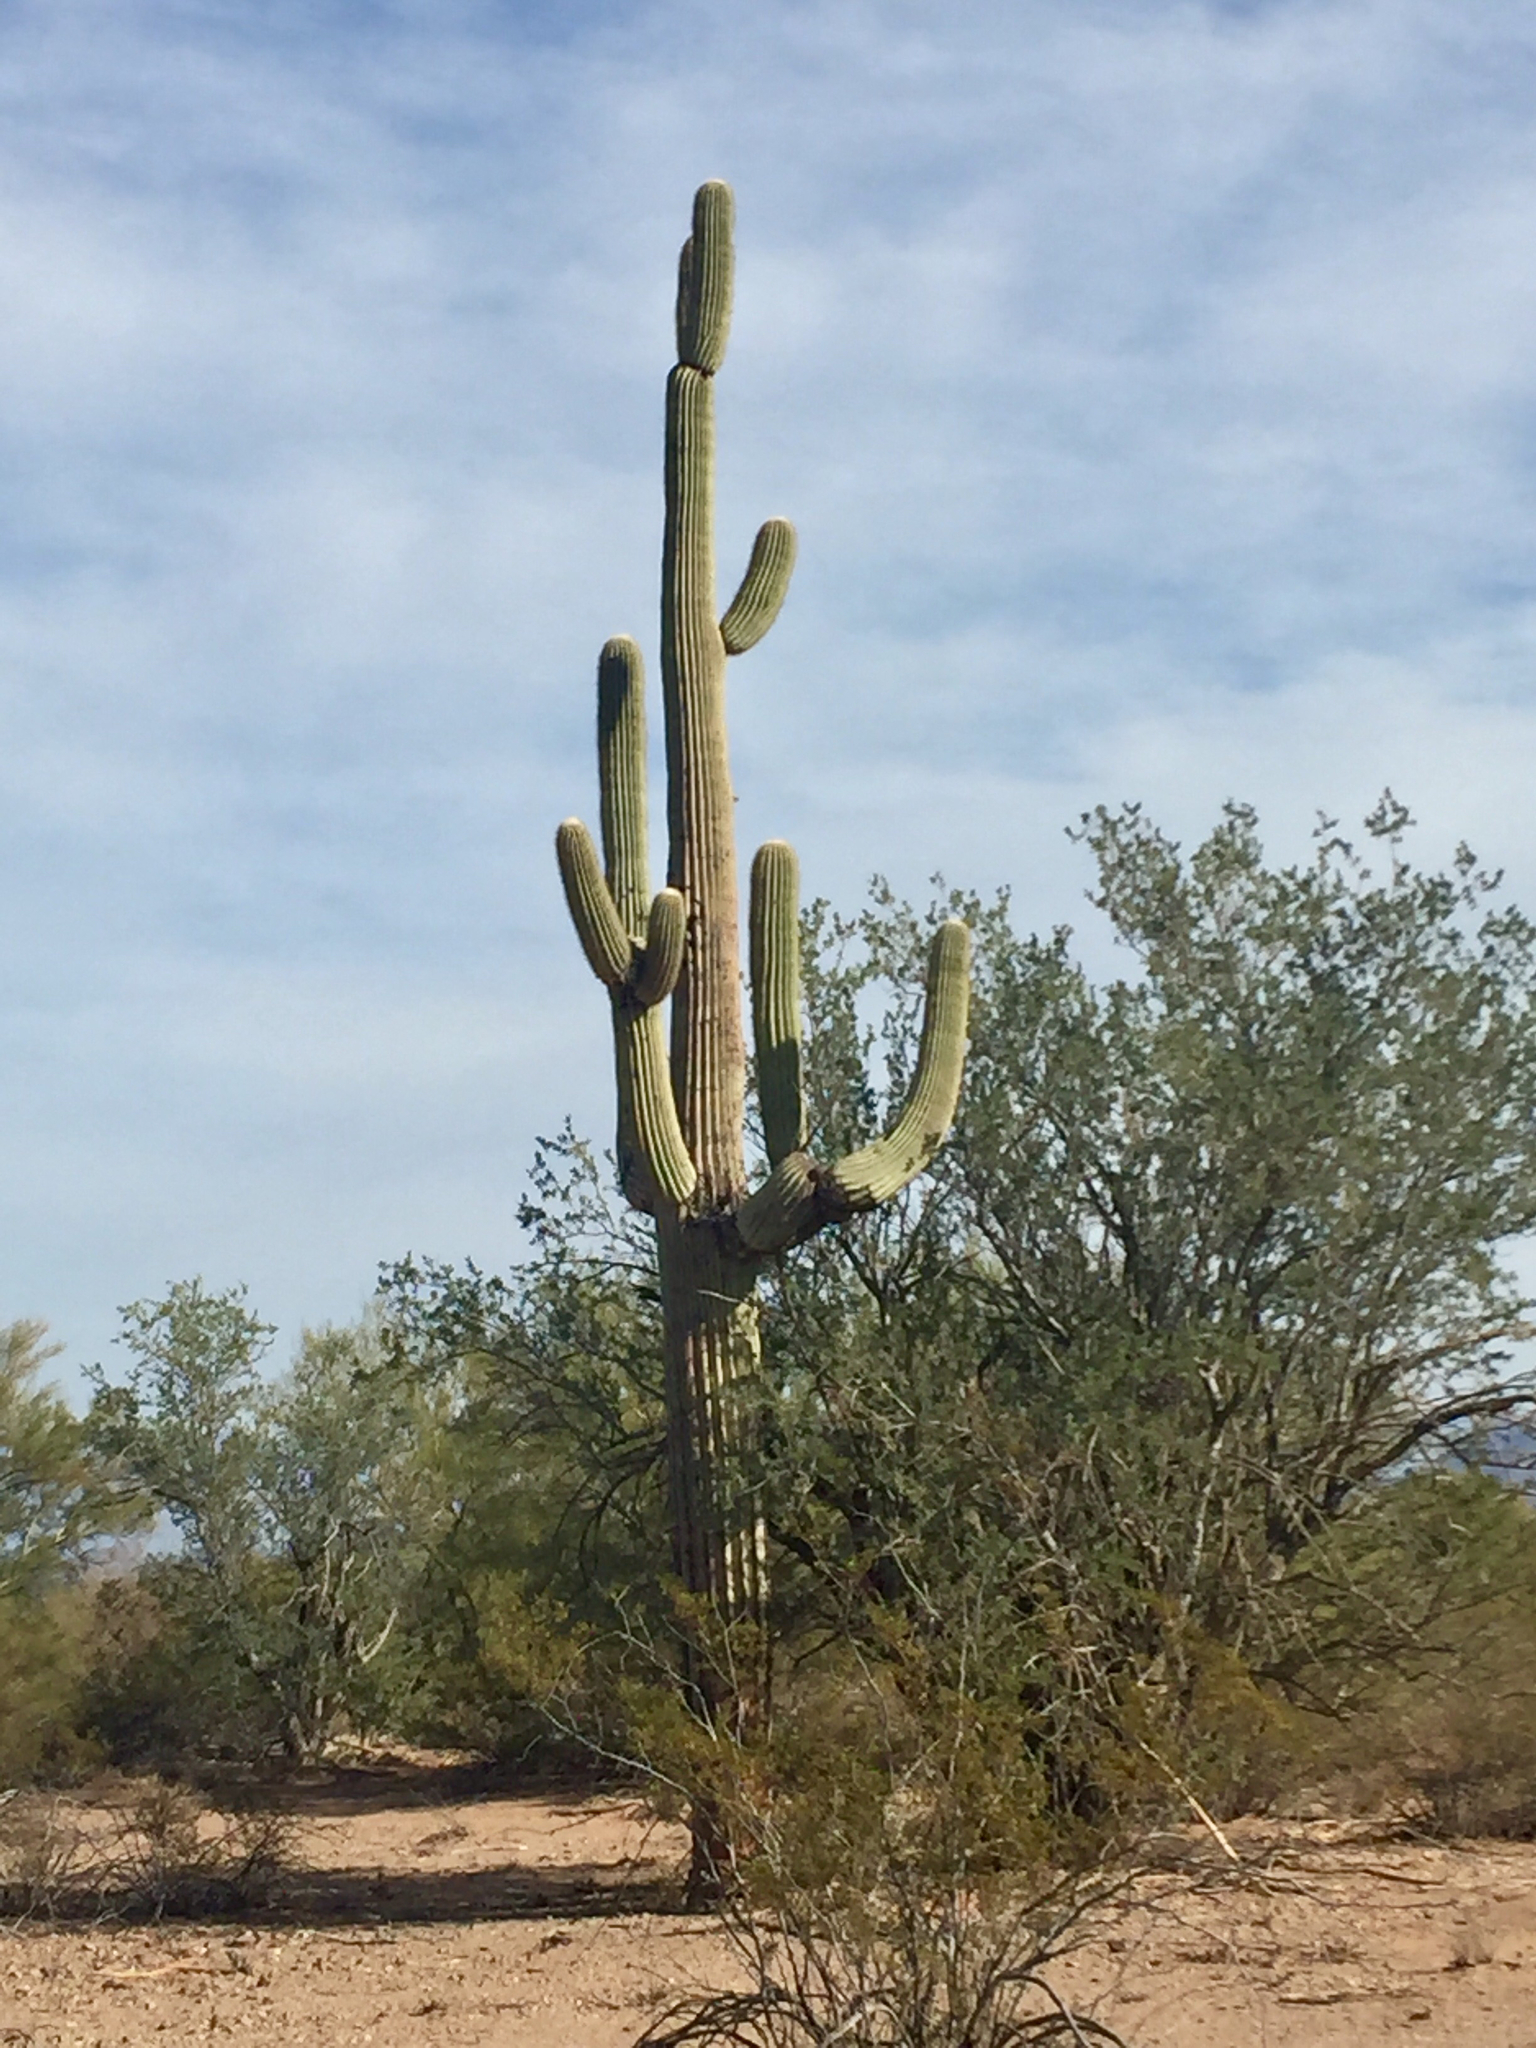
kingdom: Plantae
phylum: Tracheophyta
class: Magnoliopsida
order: Caryophyllales
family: Cactaceae
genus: Carnegiea
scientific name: Carnegiea gigantea
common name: Saguaro
